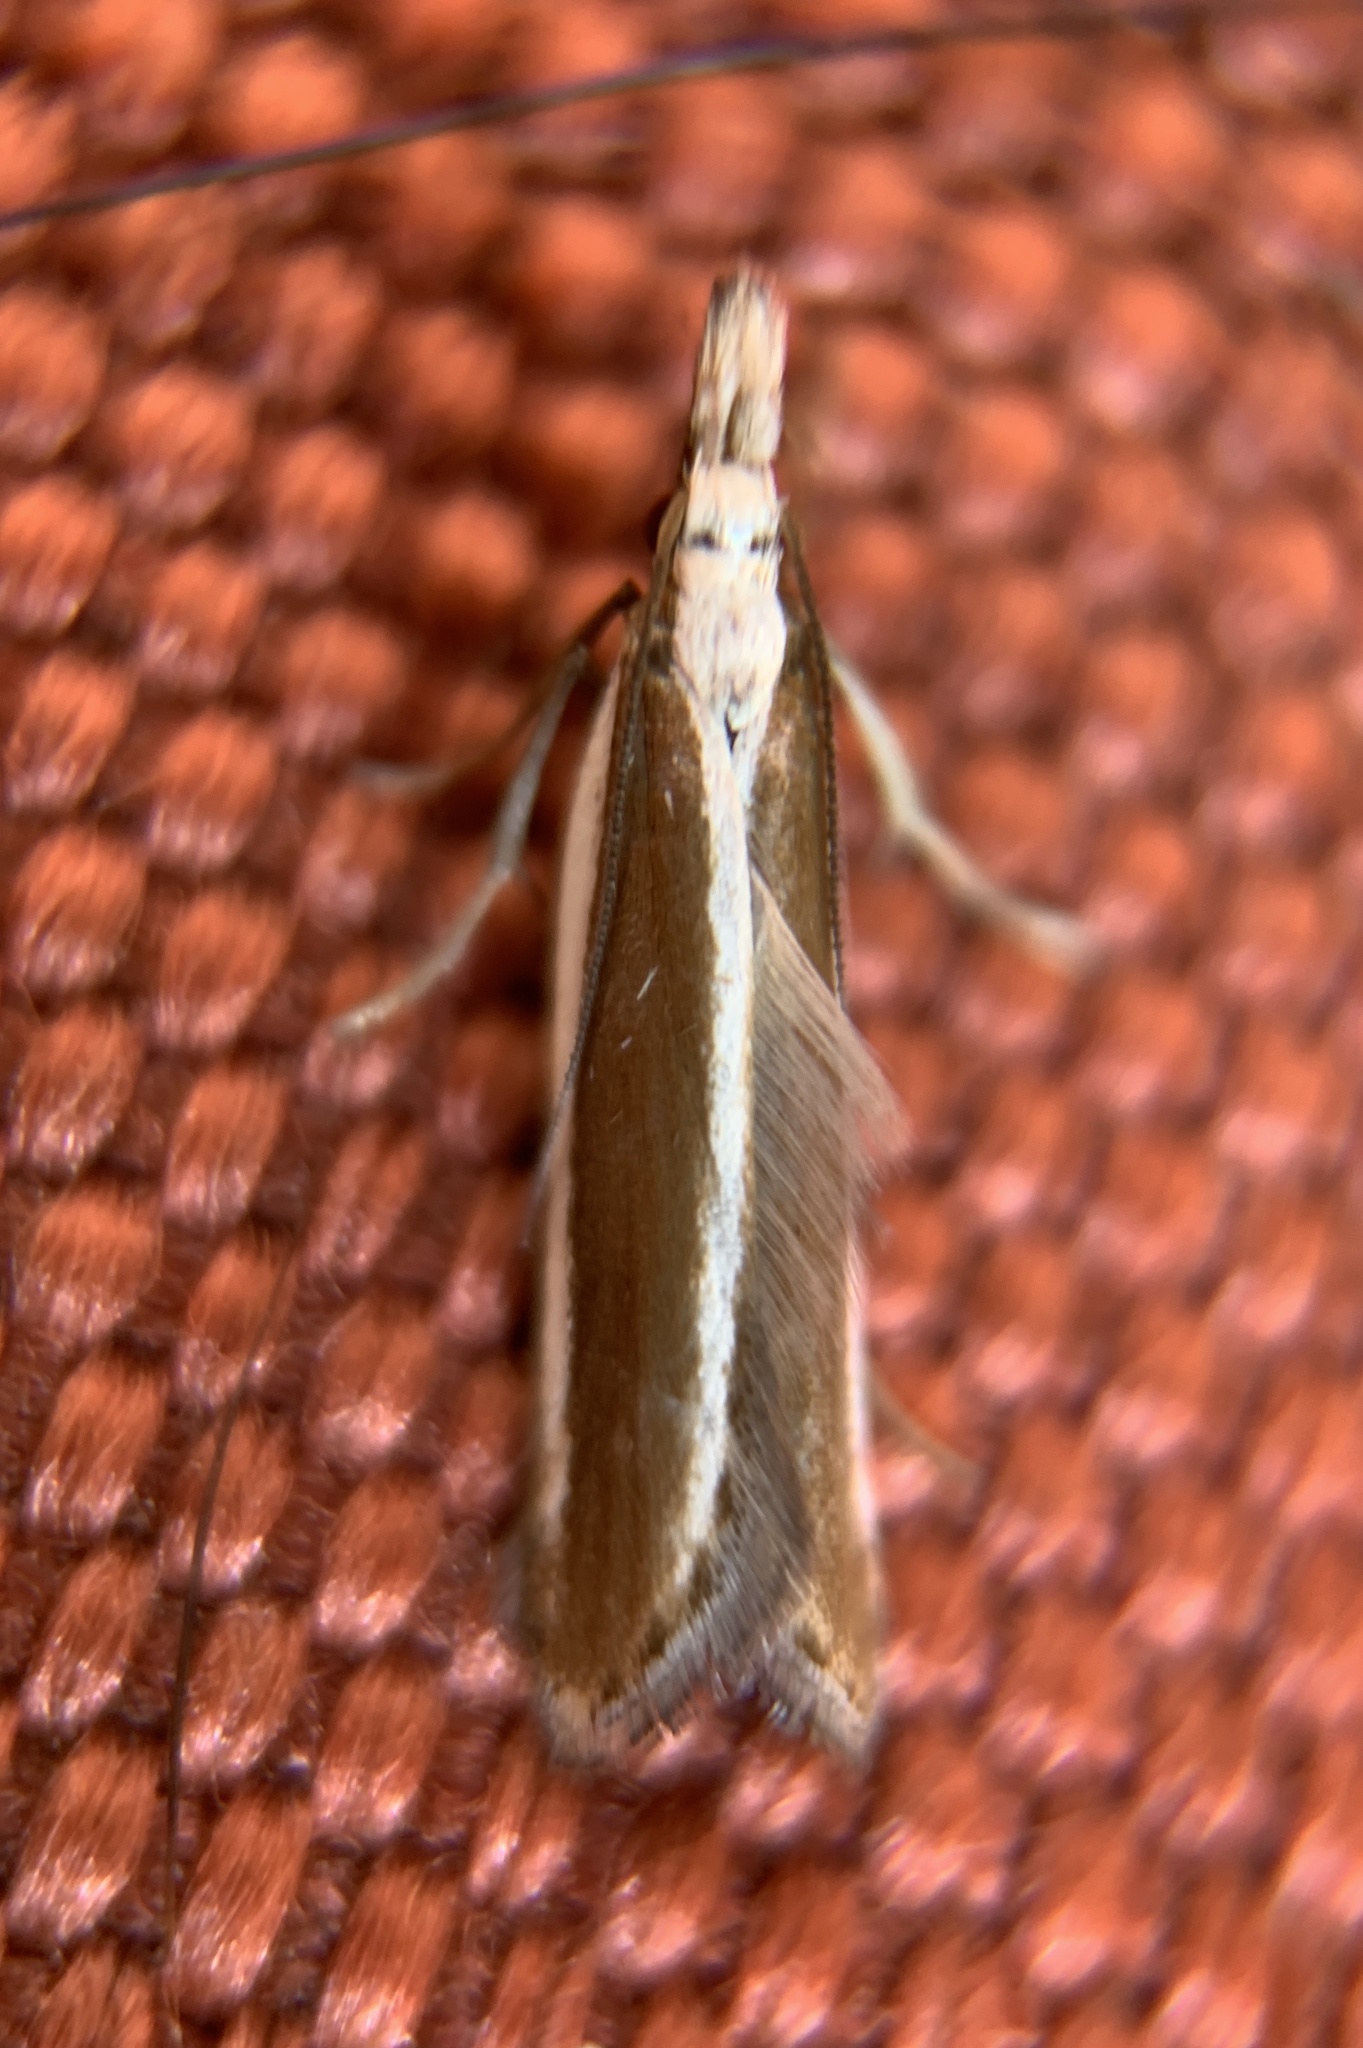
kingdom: Animalia
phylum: Arthropoda
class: Insecta
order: Lepidoptera
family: Gelechiidae
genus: Dichomeris
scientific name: Dichomeris marginella
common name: Juniper webworm
